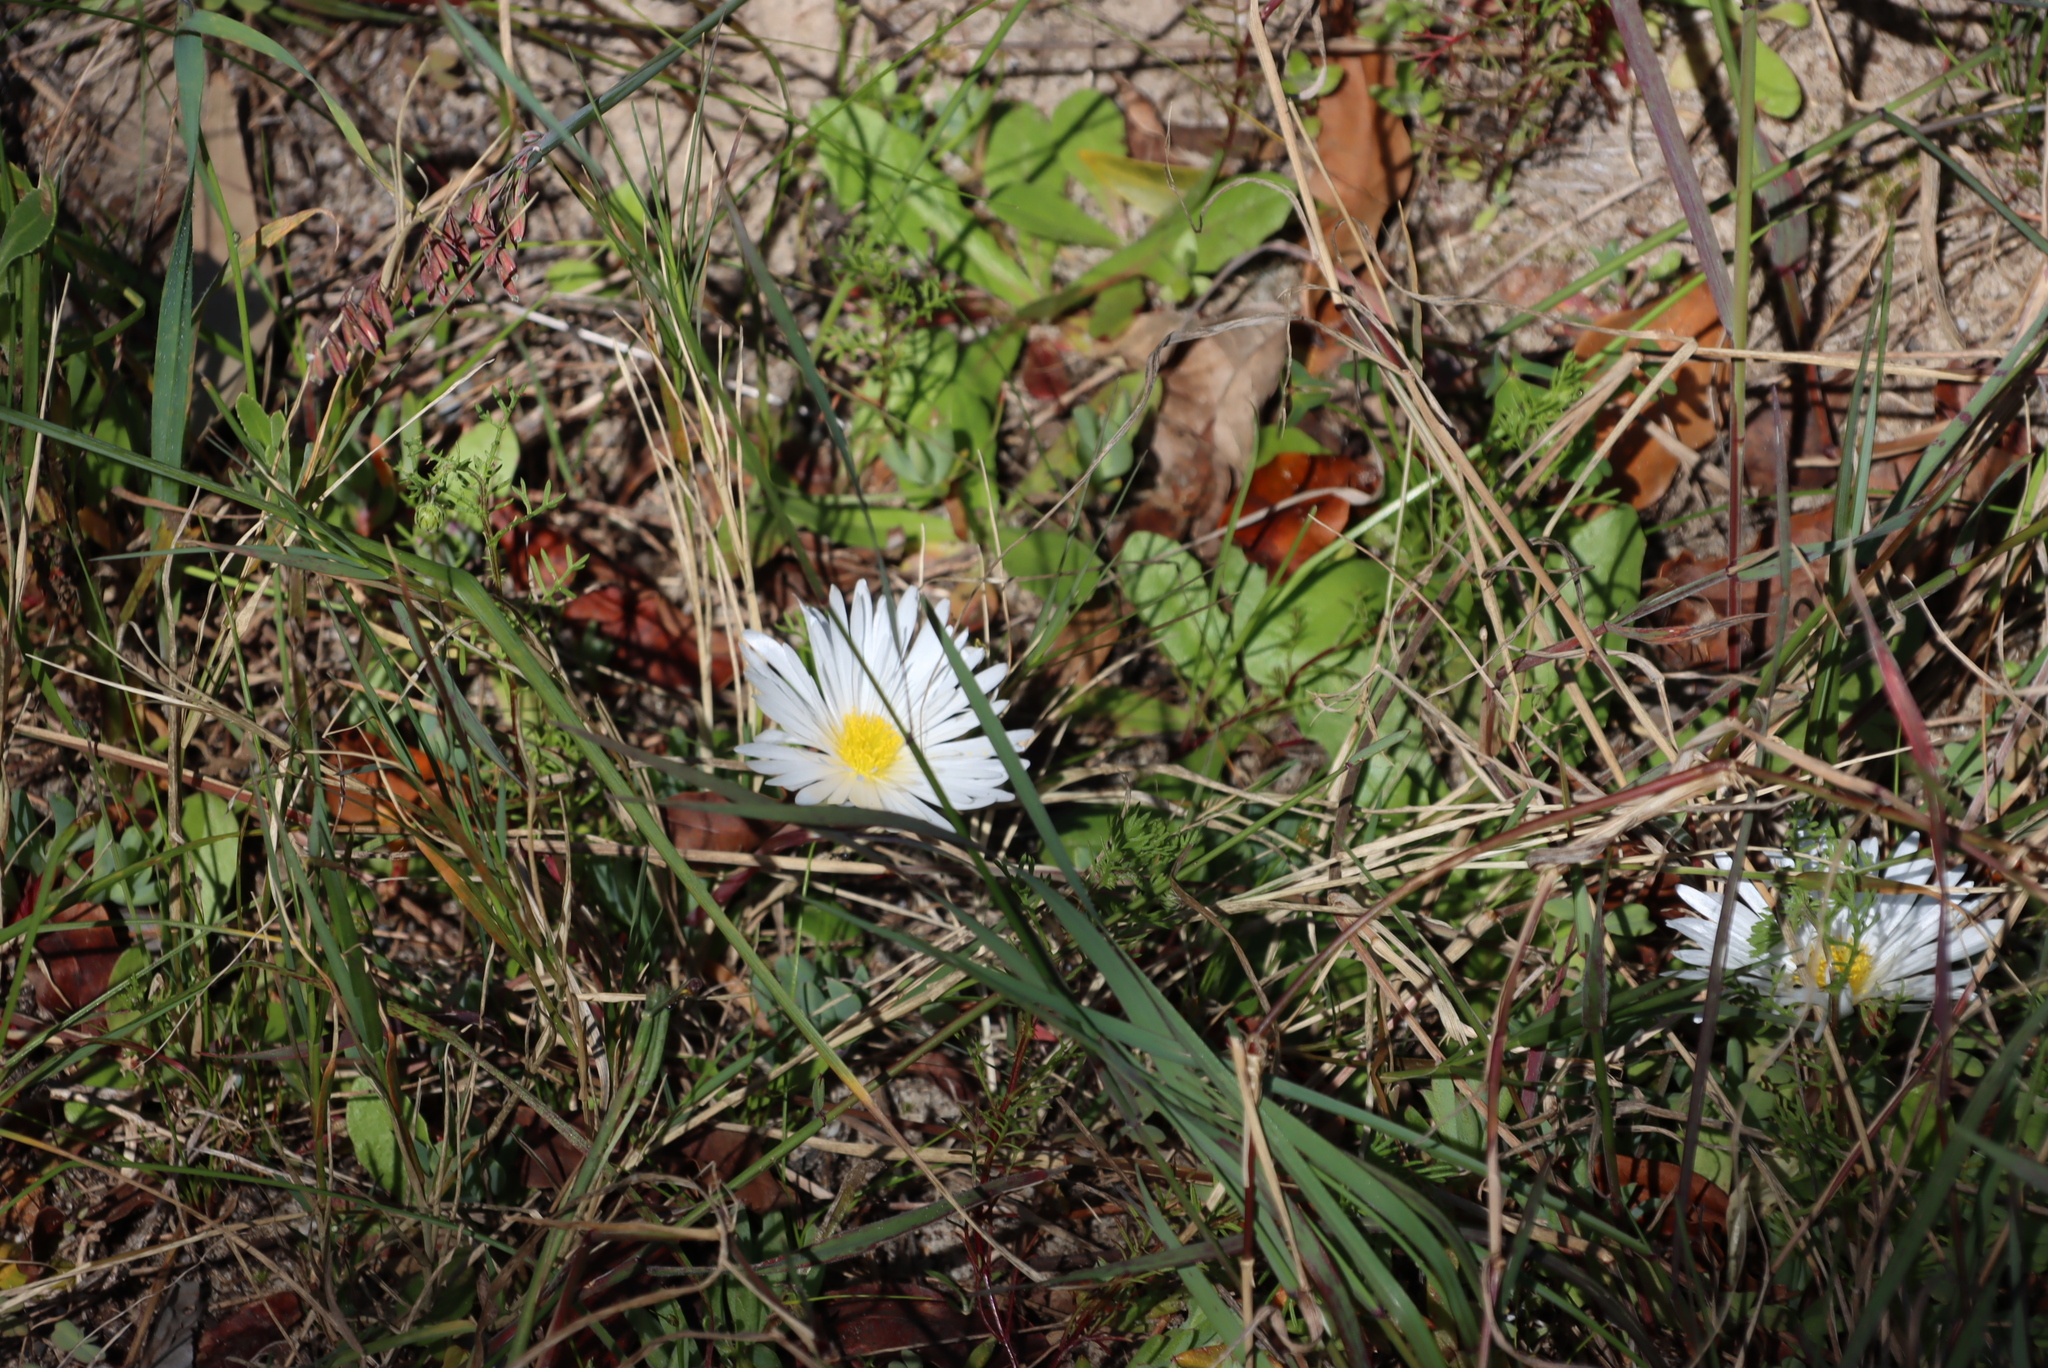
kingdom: Plantae
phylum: Tracheophyta
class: Magnoliopsida
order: Caryophyllales
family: Aizoaceae
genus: Lampranthus
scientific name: Lampranthus reptans
